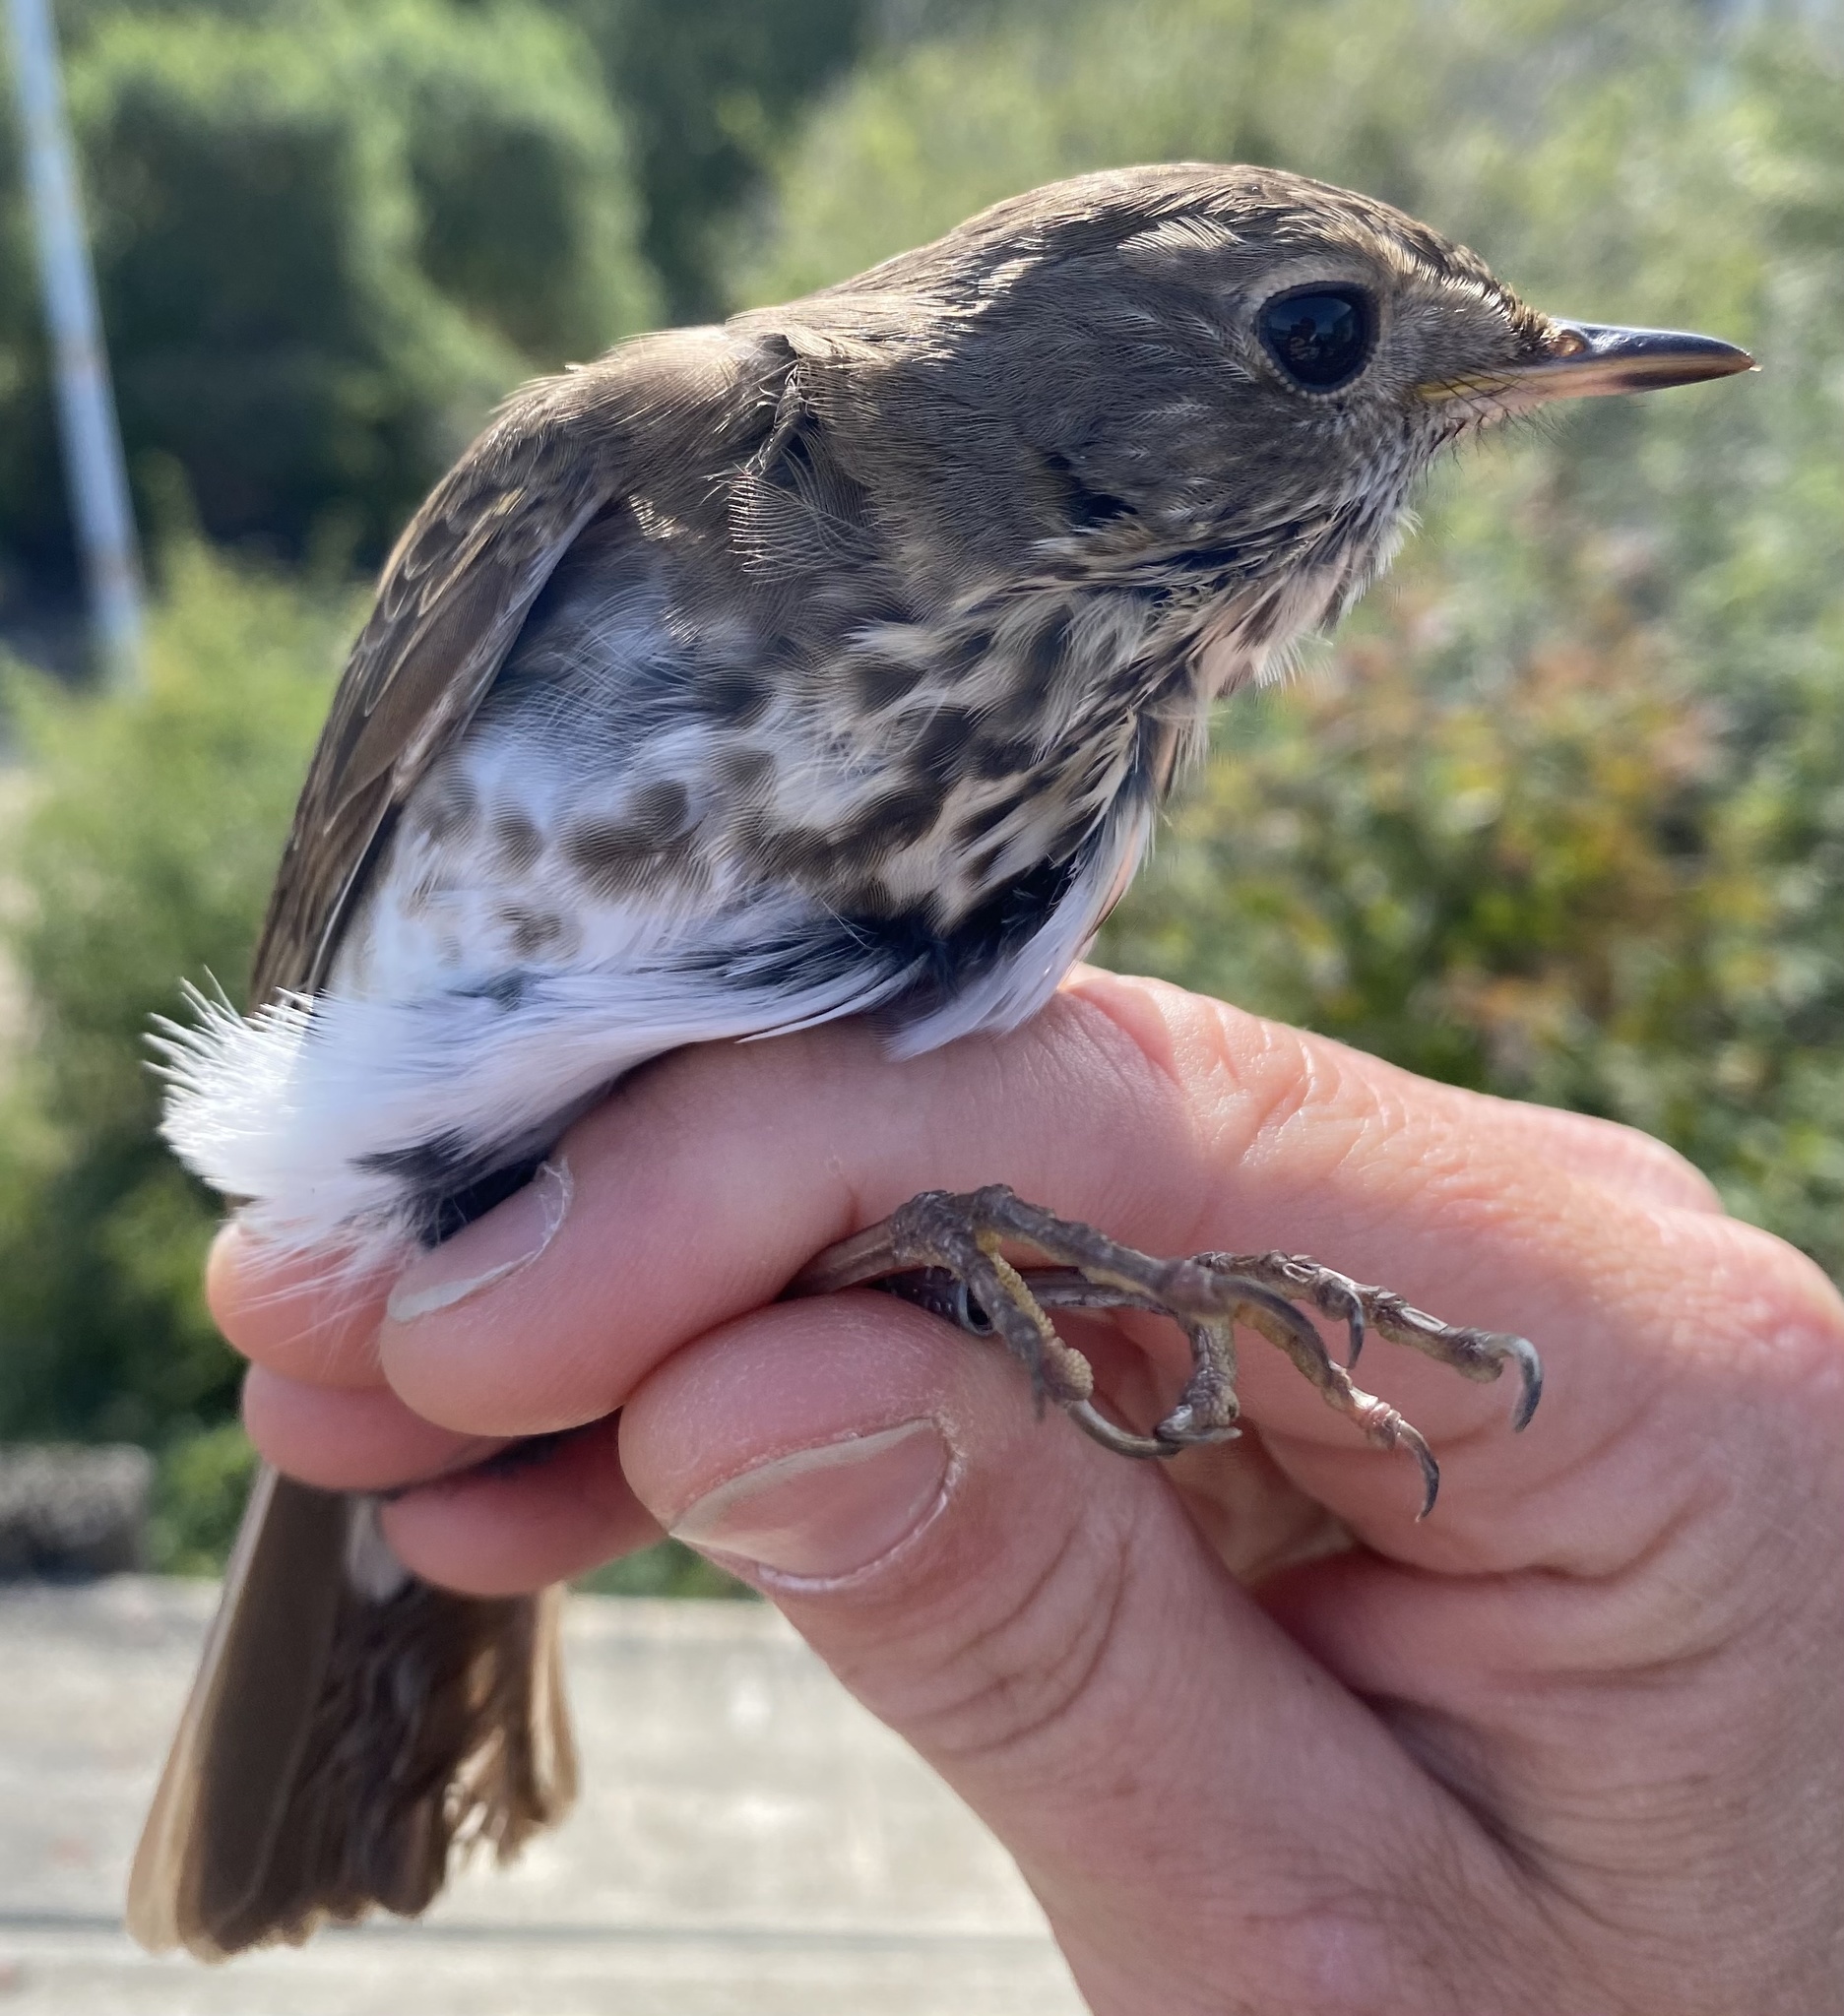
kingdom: Animalia
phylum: Chordata
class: Aves
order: Passeriformes
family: Turdidae
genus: Catharus
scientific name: Catharus guttatus
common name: Hermit thrush
